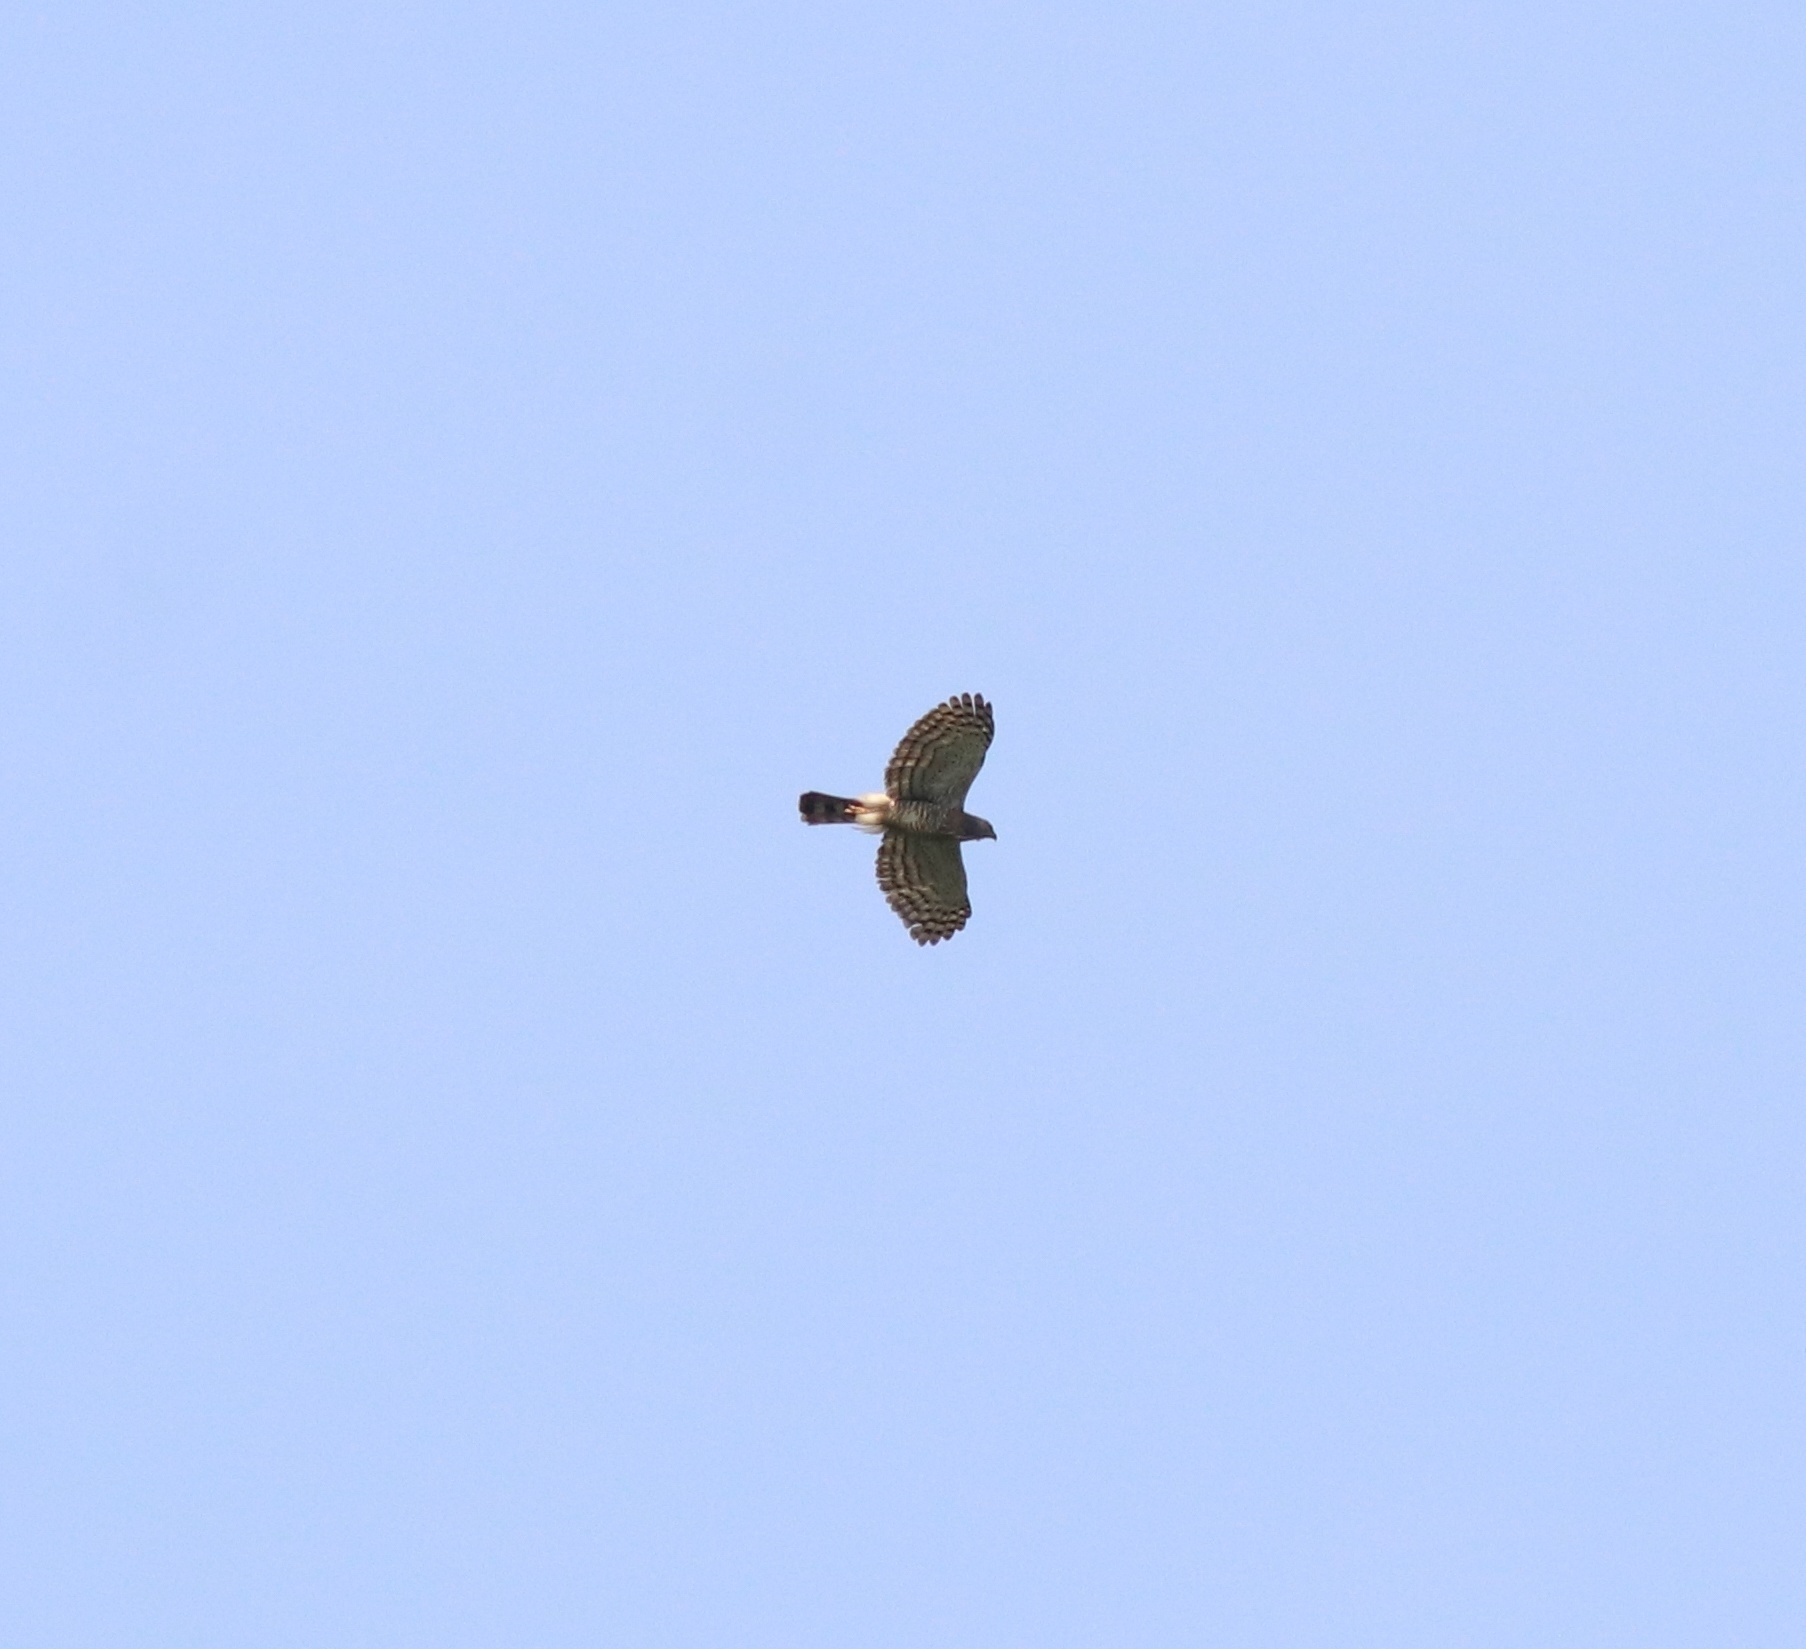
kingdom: Animalia
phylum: Chordata
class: Aves
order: Accipitriformes
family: Accipitridae
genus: Accipiter
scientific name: Accipiter trivirgatus
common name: Crested goshawk
